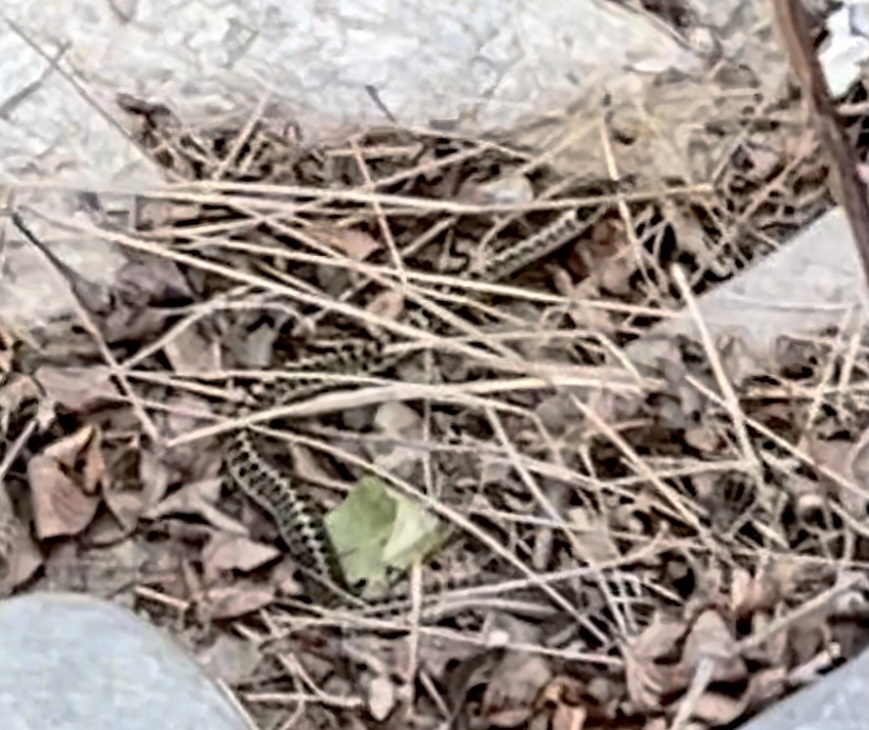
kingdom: Animalia
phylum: Chordata
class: Squamata
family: Colubridae
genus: Thamnophis
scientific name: Thamnophis elegans
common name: Western terrestrial garter snake
